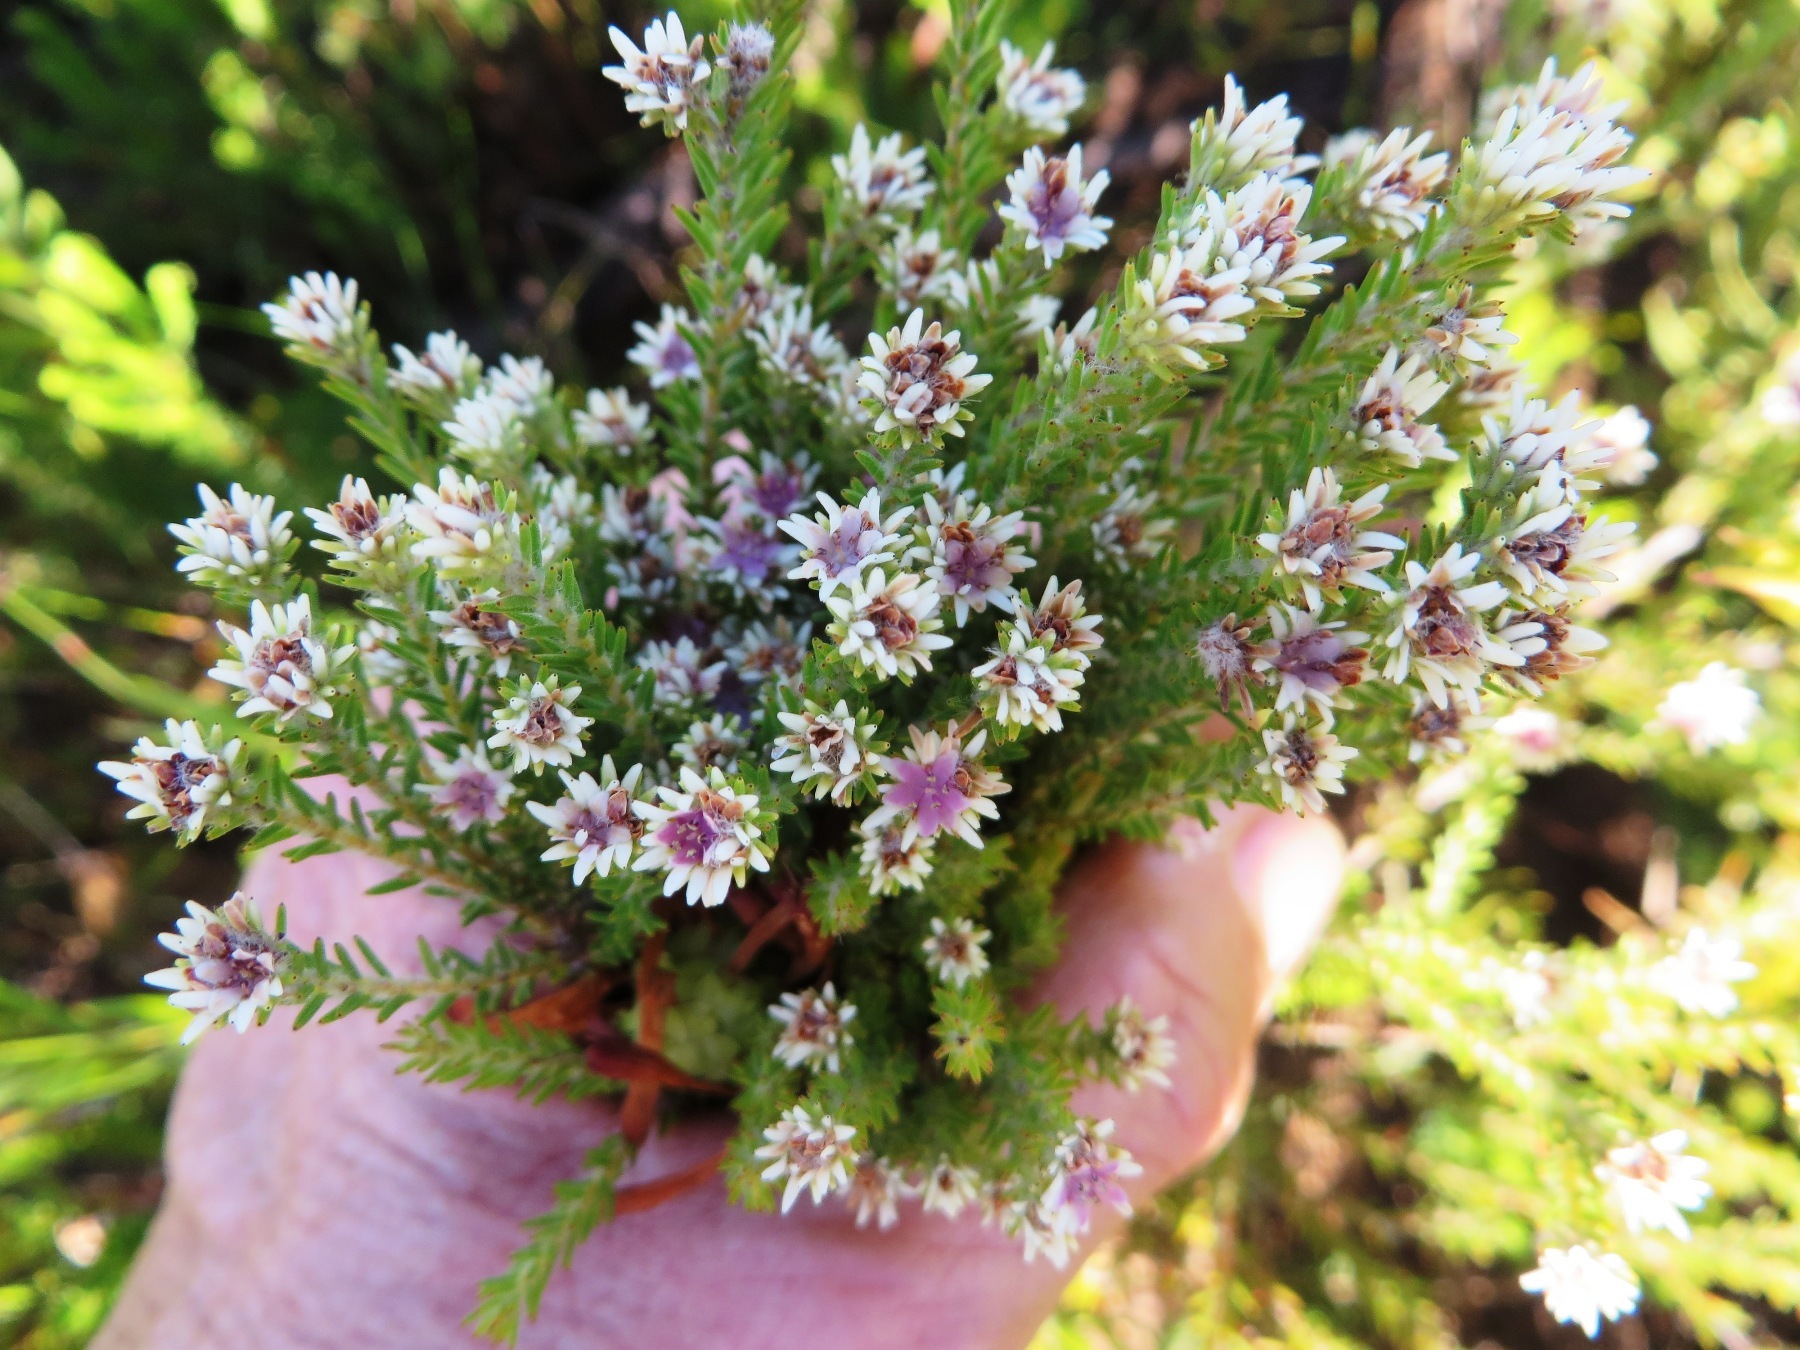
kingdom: Plantae
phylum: Tracheophyta
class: Magnoliopsida
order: Bruniales
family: Bruniaceae
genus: Staavia
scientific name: Staavia radiata
